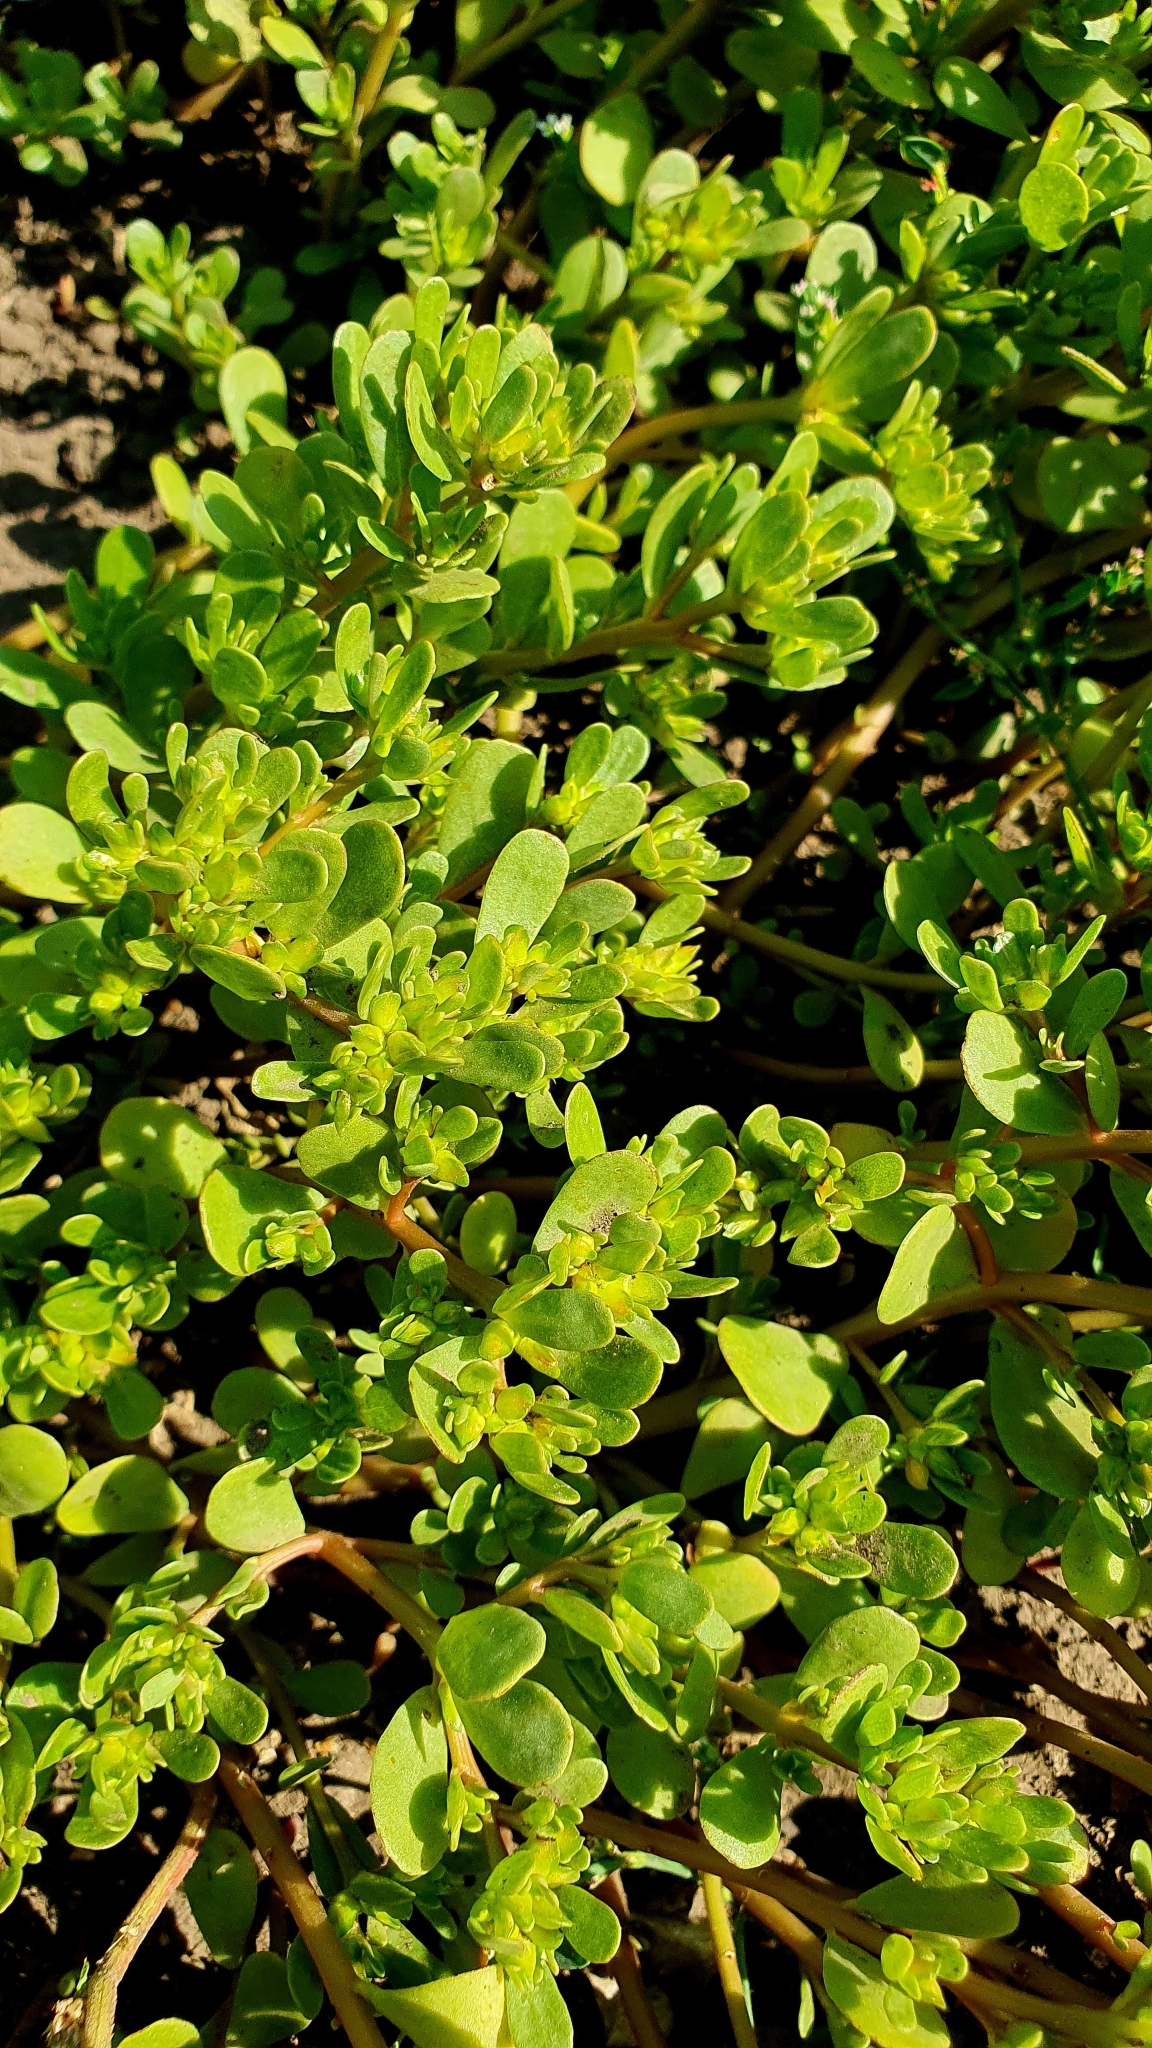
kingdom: Plantae
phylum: Tracheophyta
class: Magnoliopsida
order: Caryophyllales
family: Portulacaceae
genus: Portulaca
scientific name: Portulaca oleracea
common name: Common purslane
